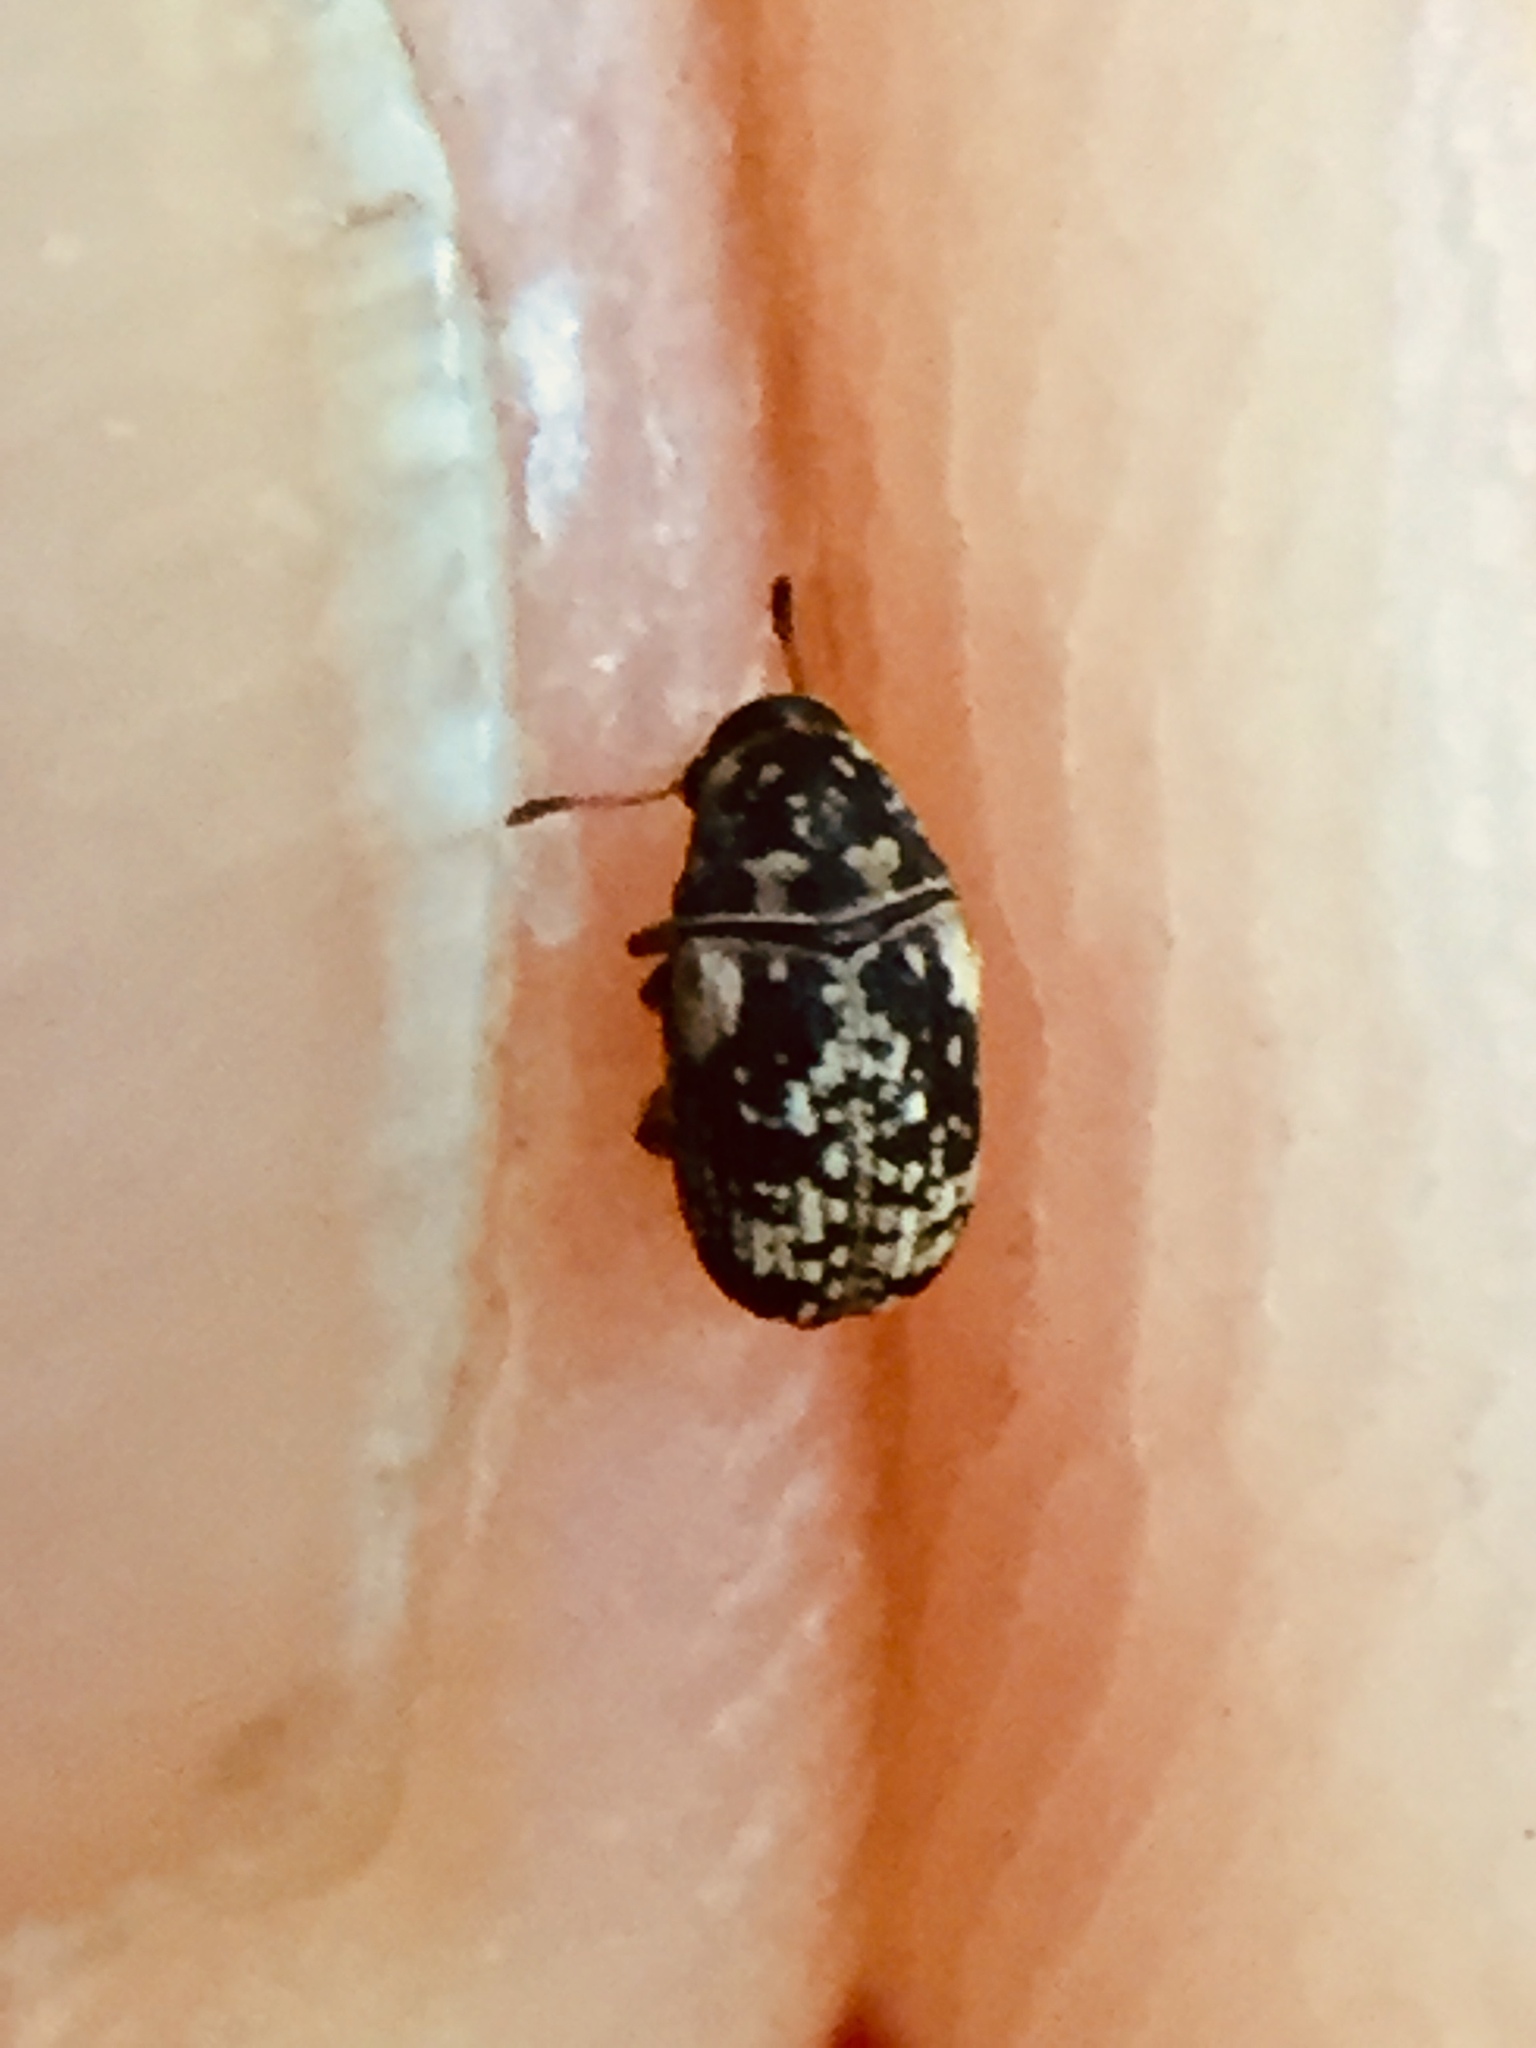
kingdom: Animalia
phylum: Arthropoda
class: Insecta
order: Coleoptera
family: Anthribidae
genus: Liromus
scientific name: Liromus
